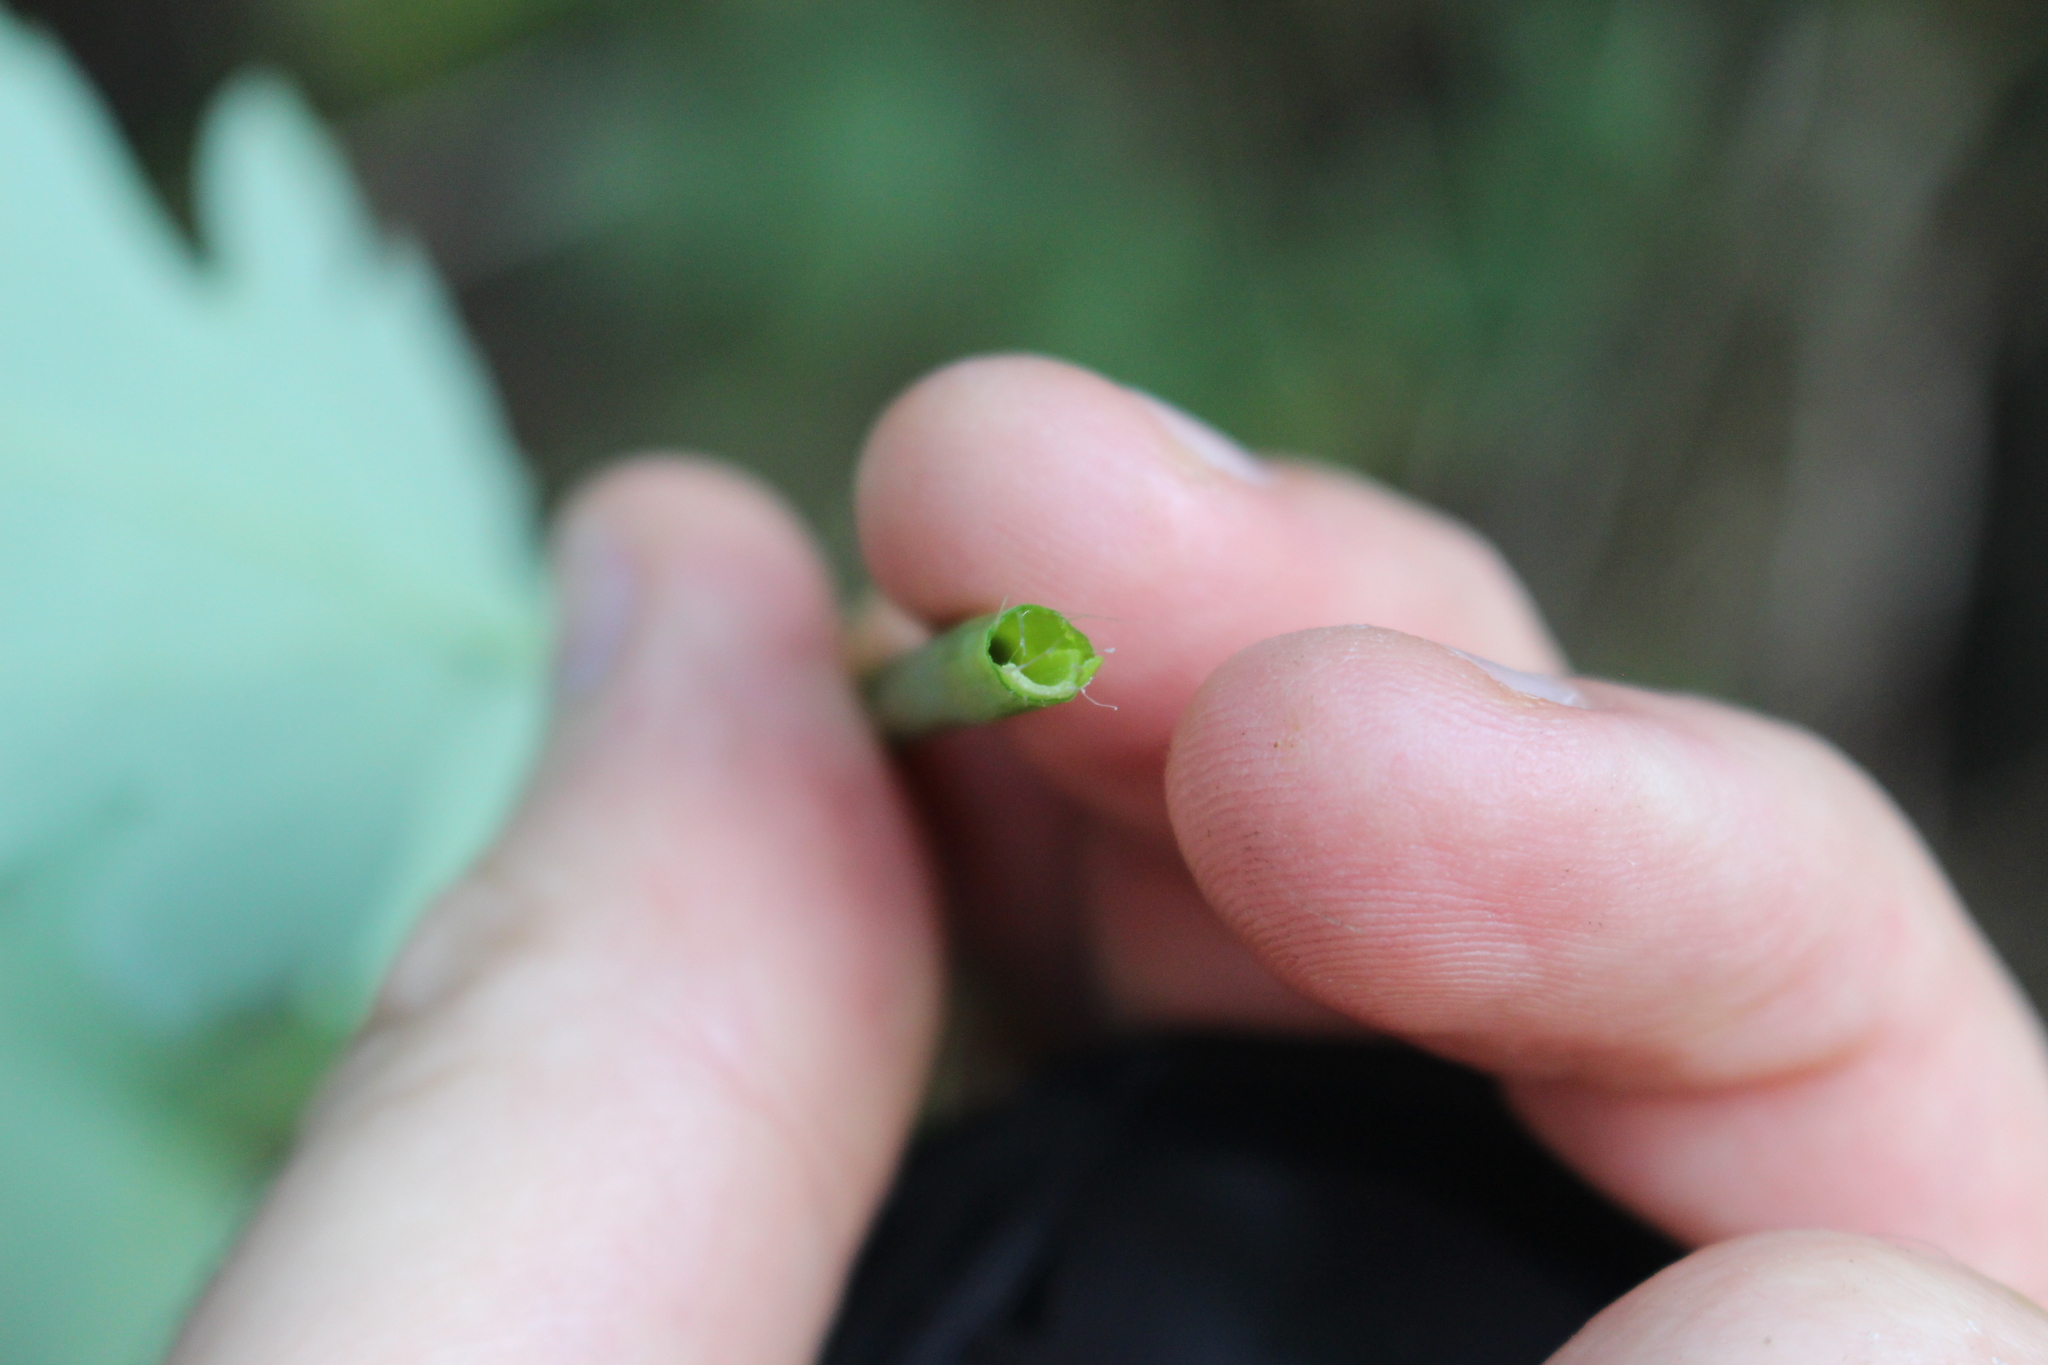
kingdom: Plantae
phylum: Tracheophyta
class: Magnoliopsida
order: Dipsacales
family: Caprifoliaceae
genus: Leycesteria
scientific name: Leycesteria formosa
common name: Himalayan honeysuckle
